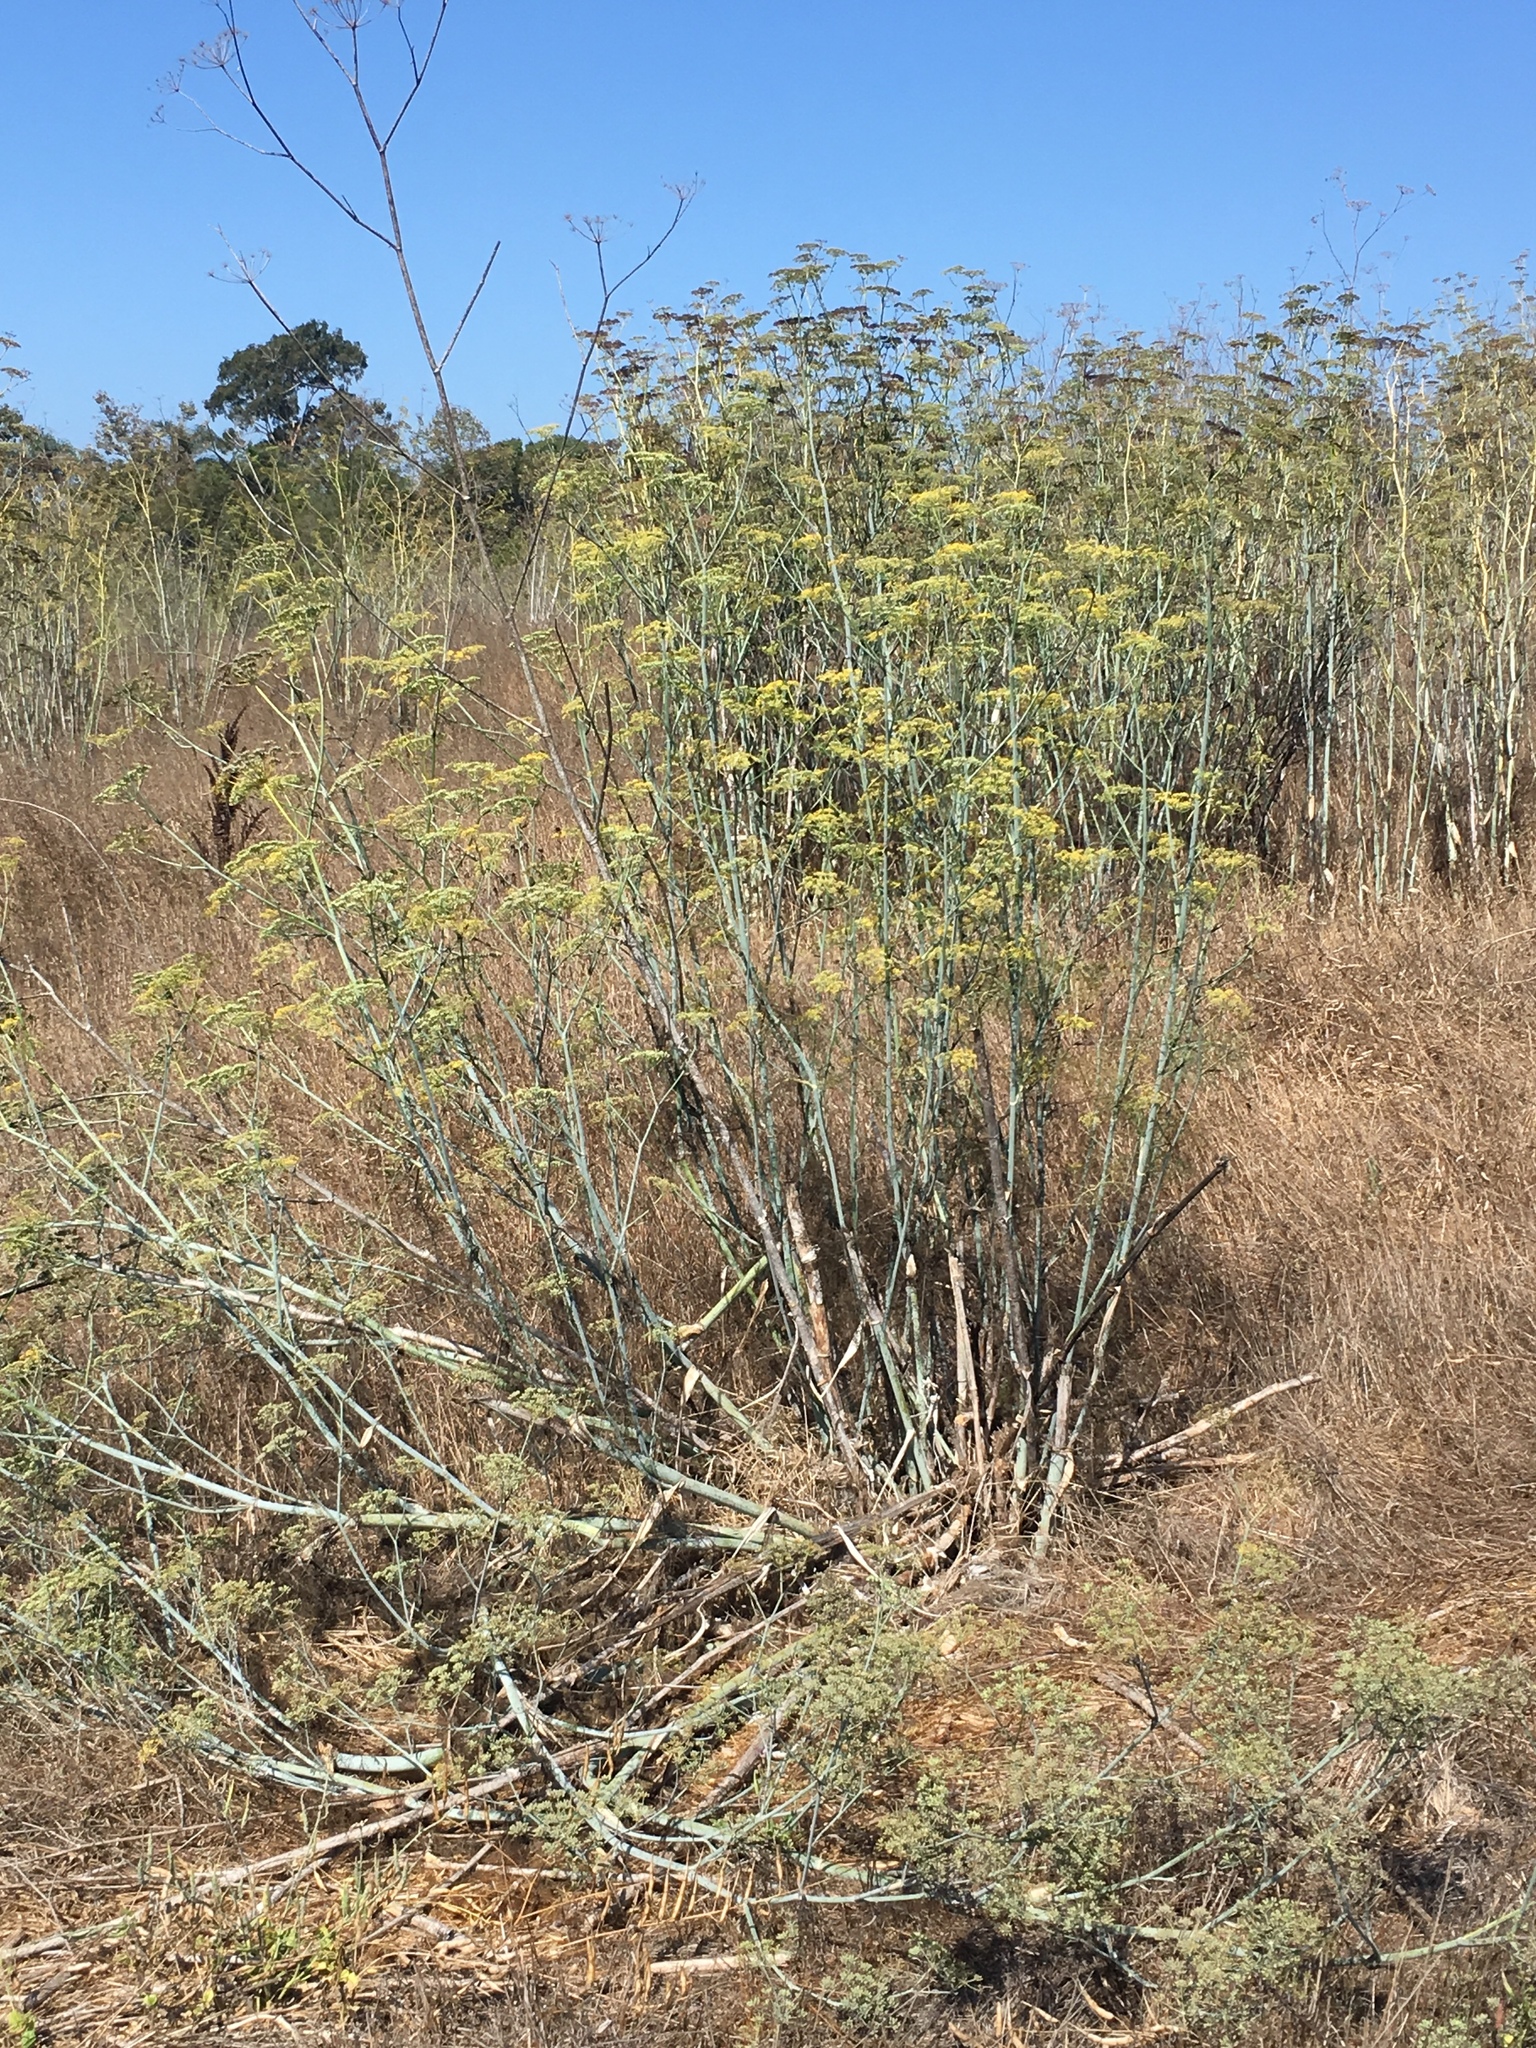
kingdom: Plantae
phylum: Tracheophyta
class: Magnoliopsida
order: Apiales
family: Apiaceae
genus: Foeniculum
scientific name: Foeniculum vulgare
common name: Fennel
